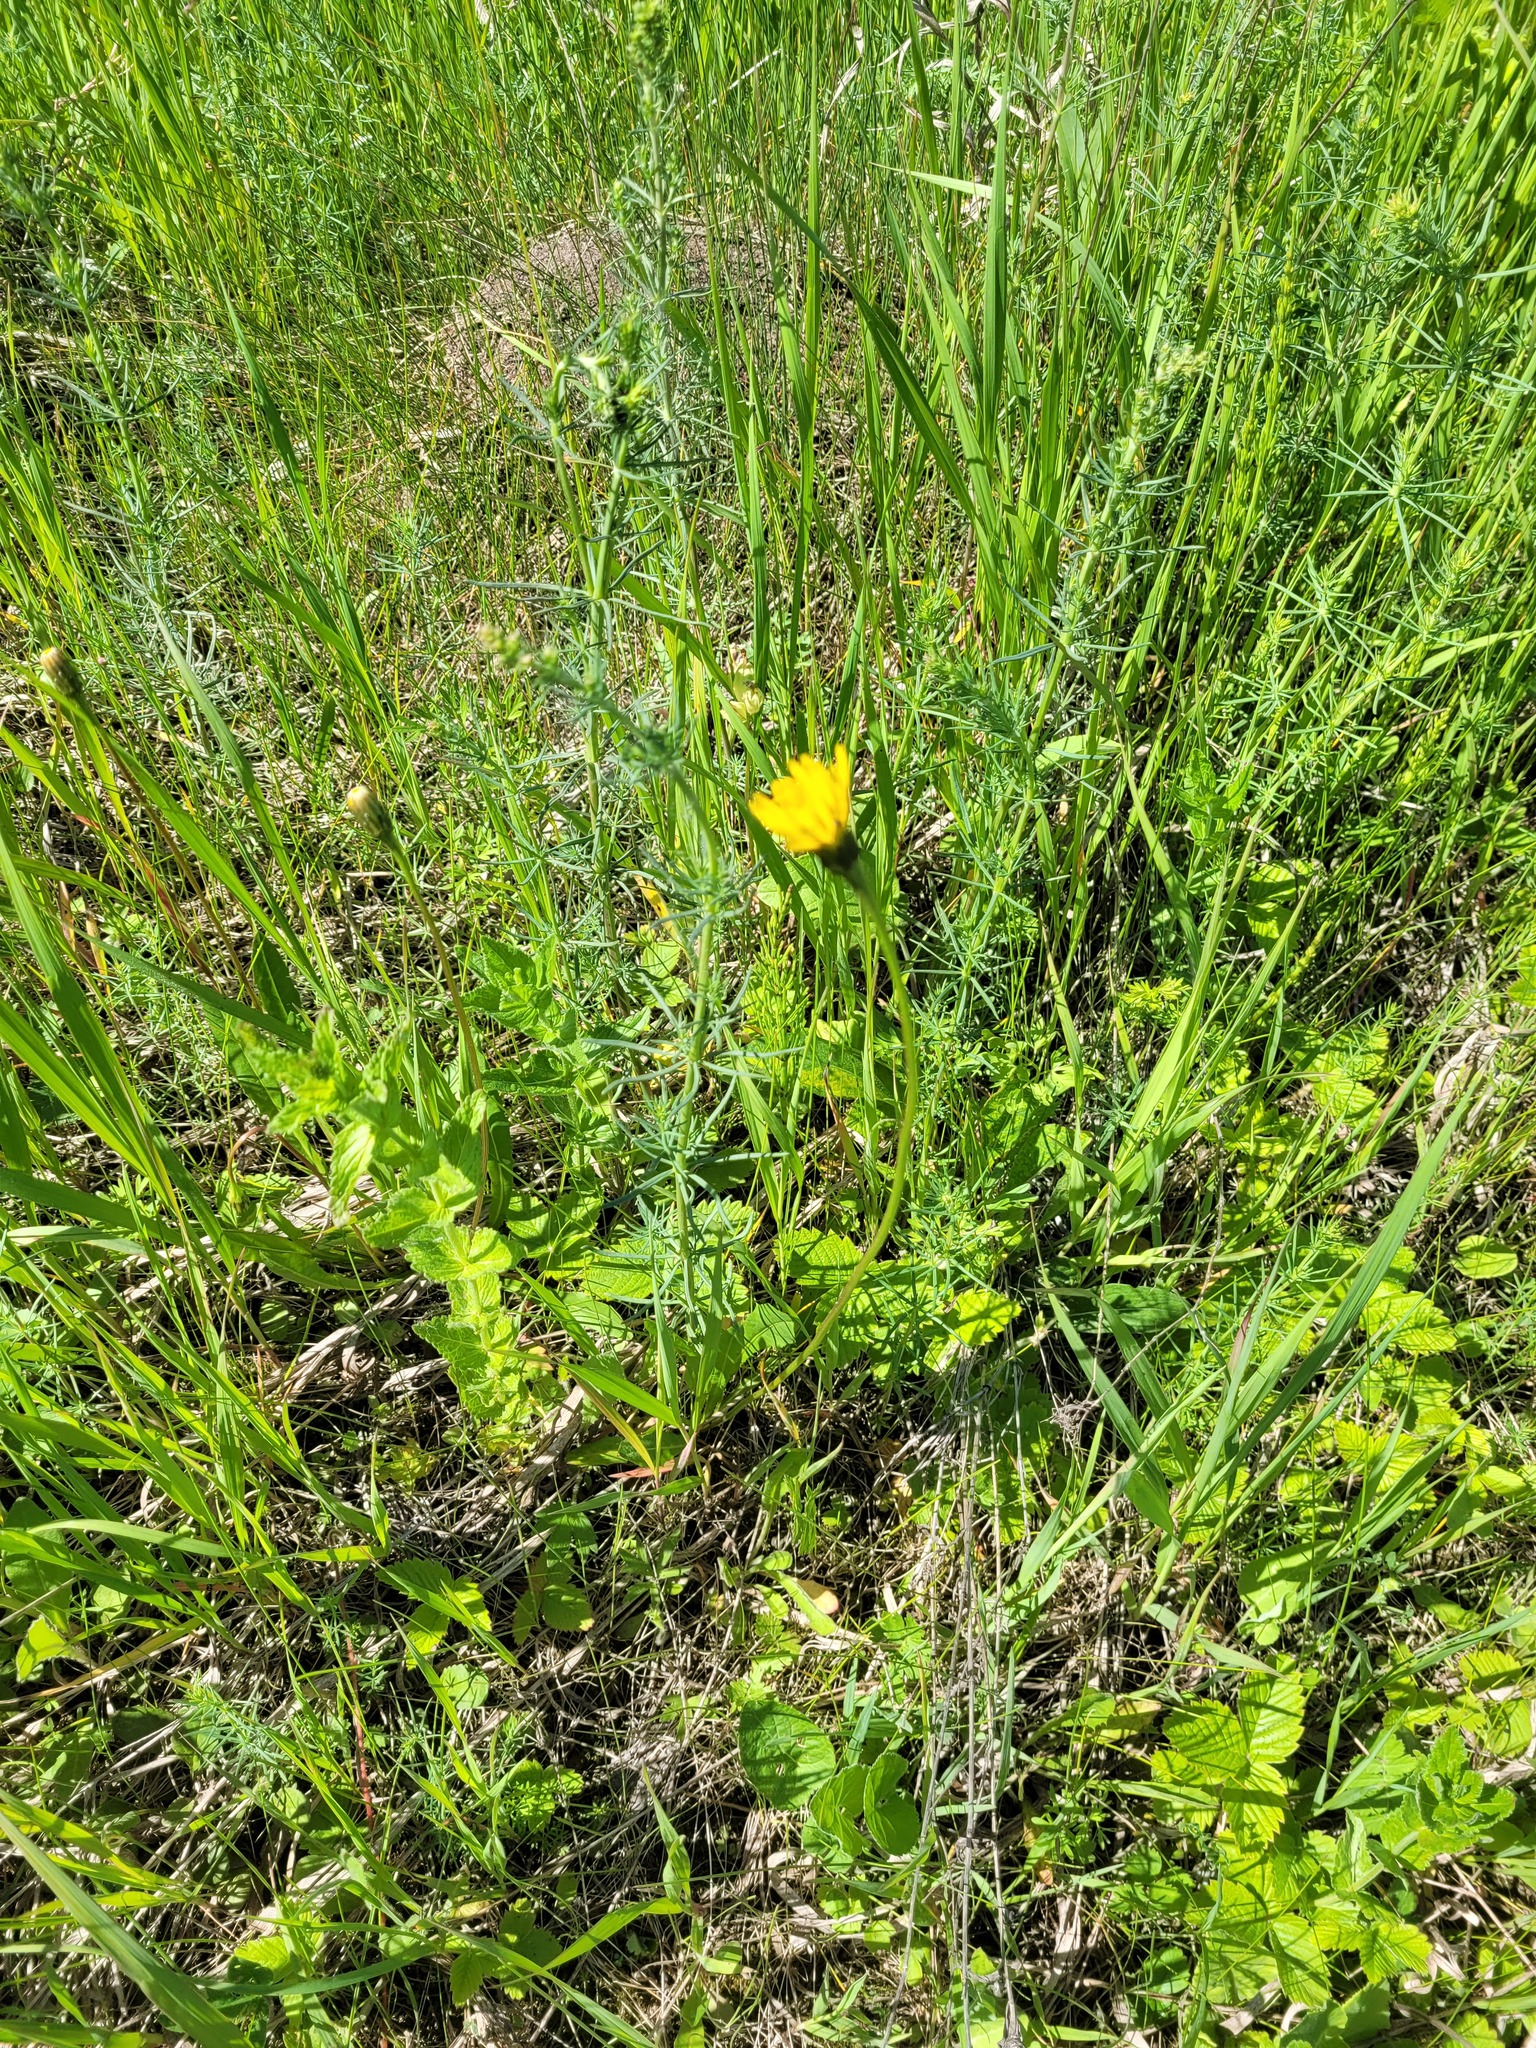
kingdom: Plantae
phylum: Tracheophyta
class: Magnoliopsida
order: Asterales
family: Asteraceae
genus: Leontodon
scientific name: Leontodon hispidus
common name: Rough hawkbit
